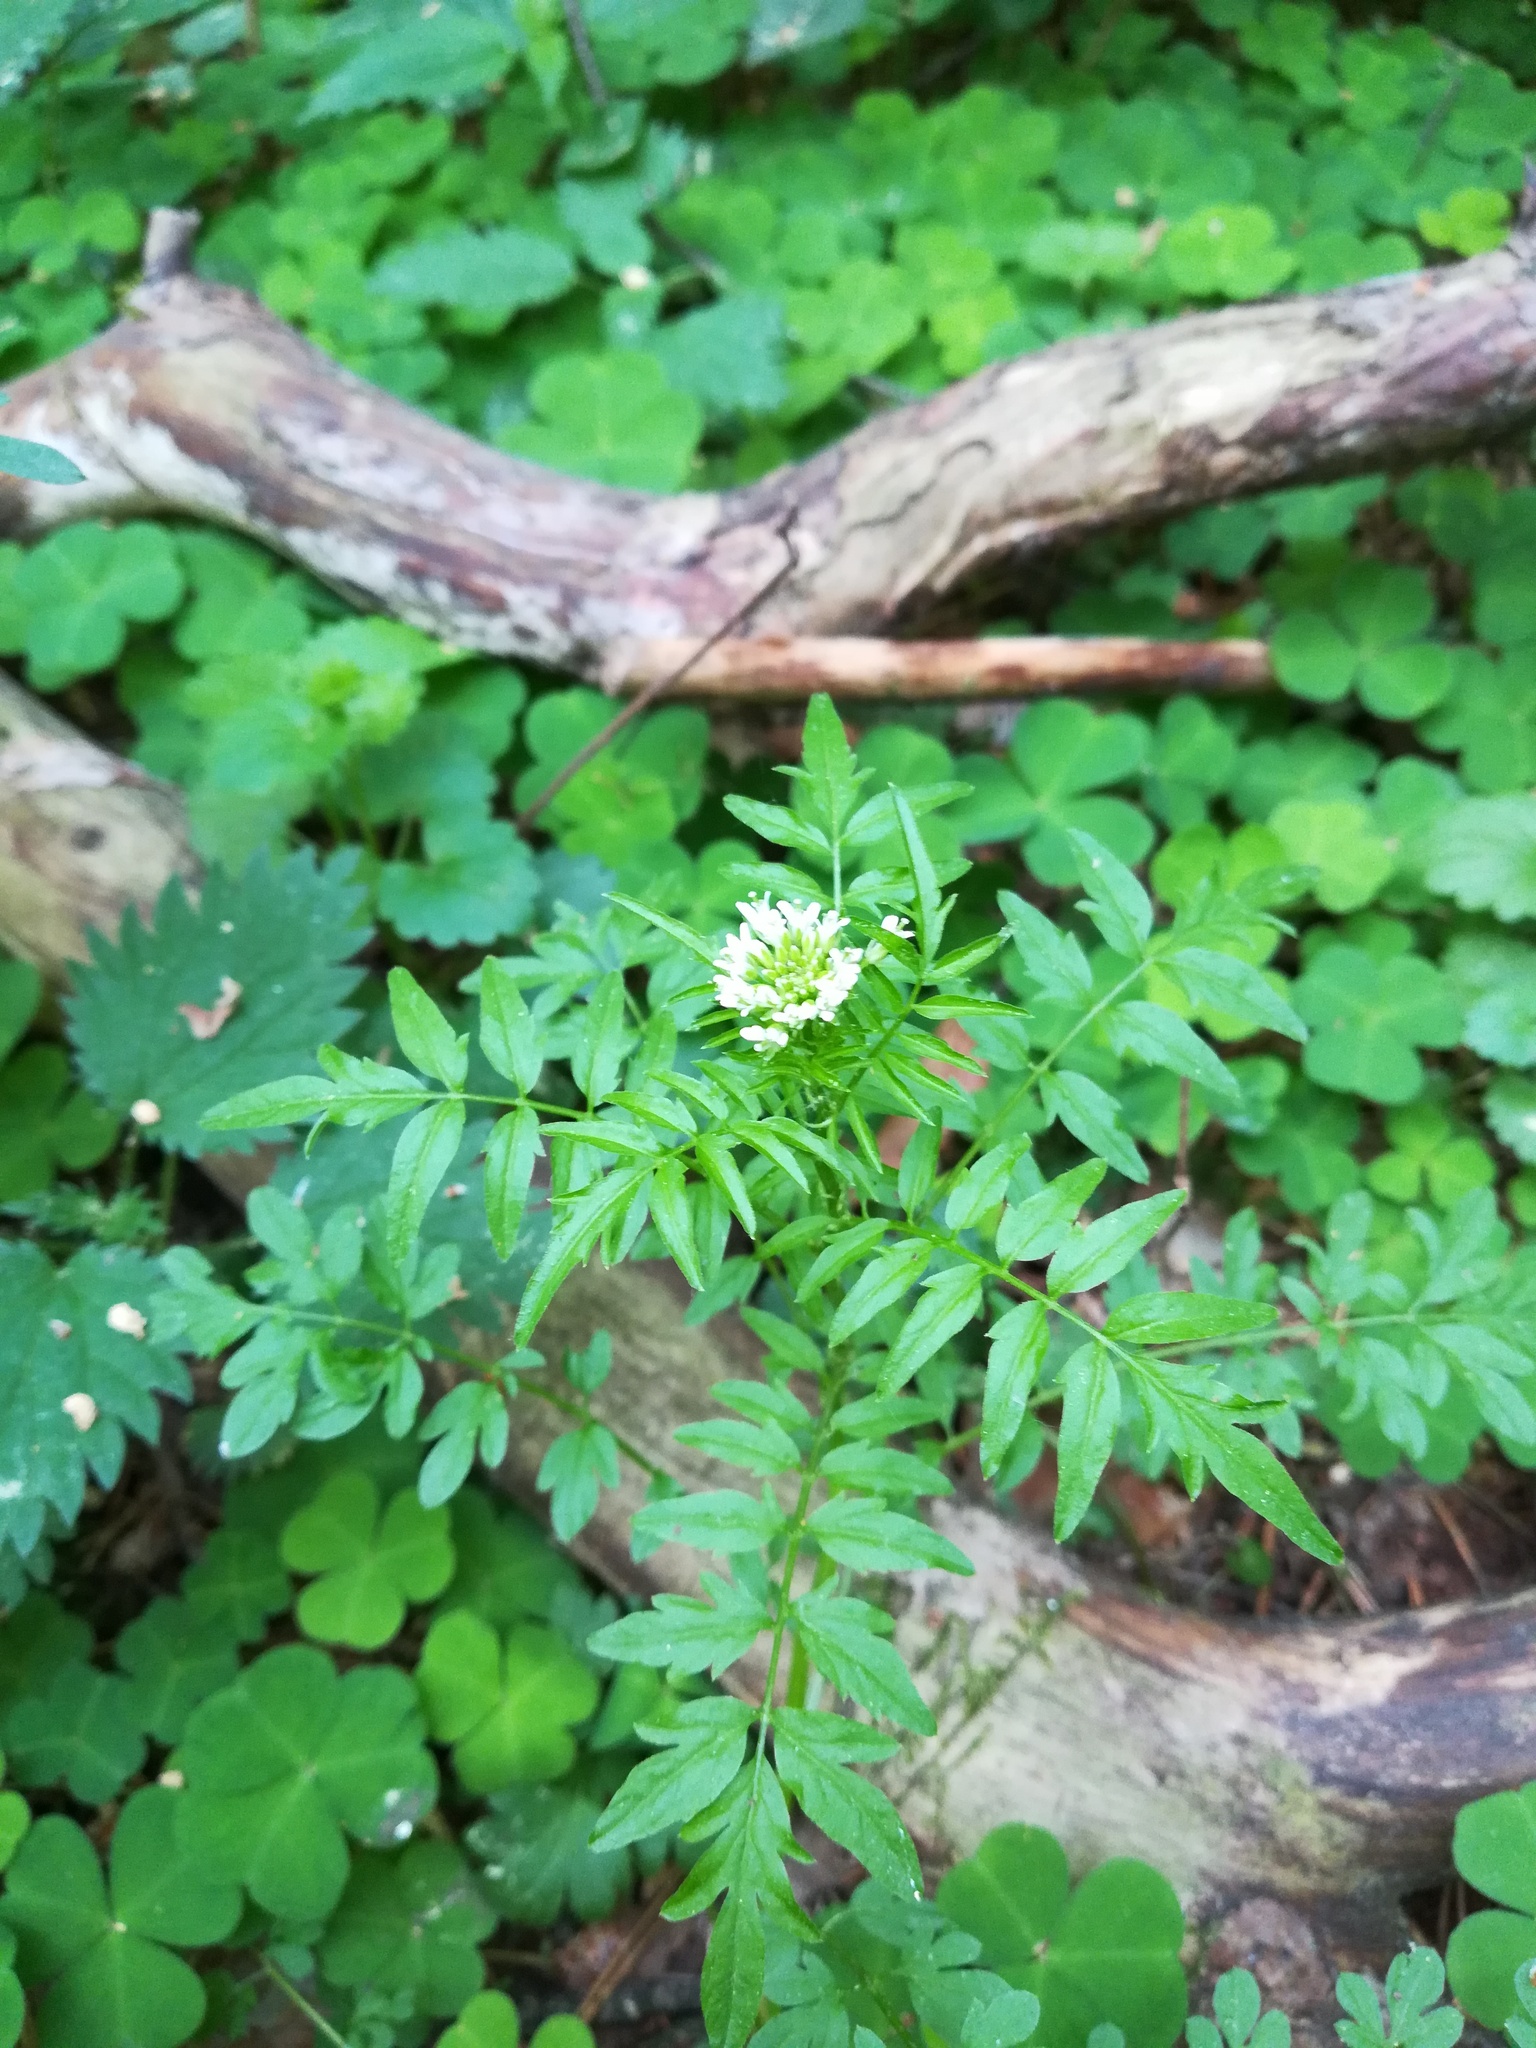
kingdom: Plantae
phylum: Tracheophyta
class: Magnoliopsida
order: Brassicales
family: Brassicaceae
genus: Cardamine
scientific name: Cardamine impatiens
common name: Narrow-leaved bitter-cress
